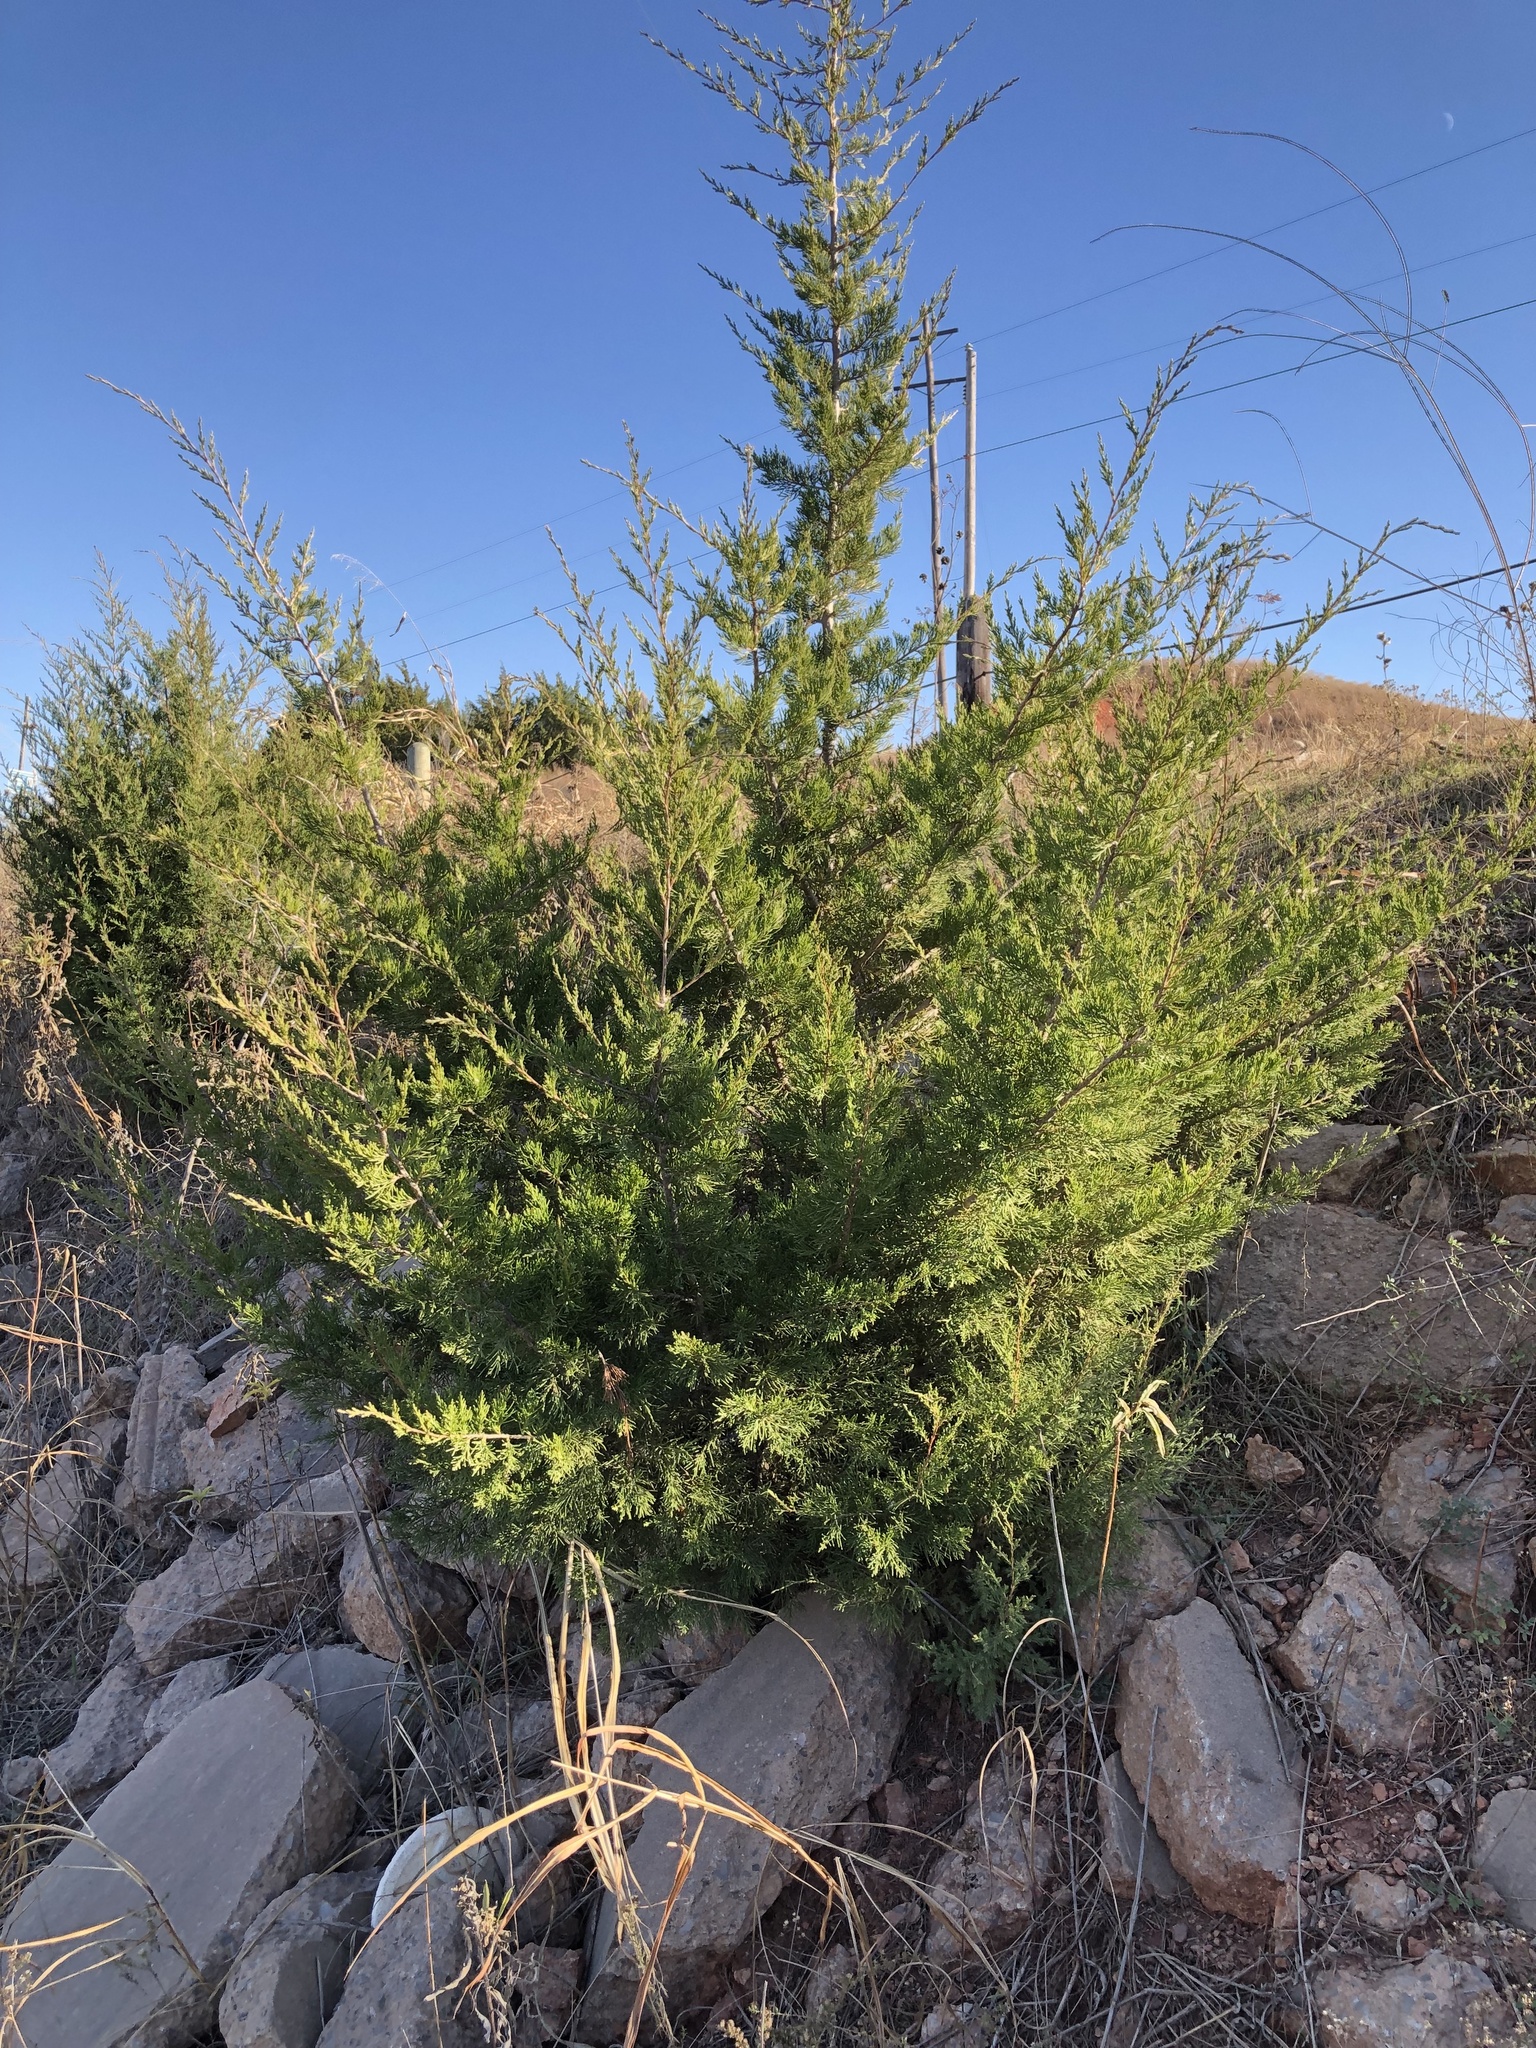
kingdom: Plantae
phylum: Tracheophyta
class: Pinopsida
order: Pinales
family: Cupressaceae
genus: Juniperus
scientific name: Juniperus virginiana
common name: Red juniper
